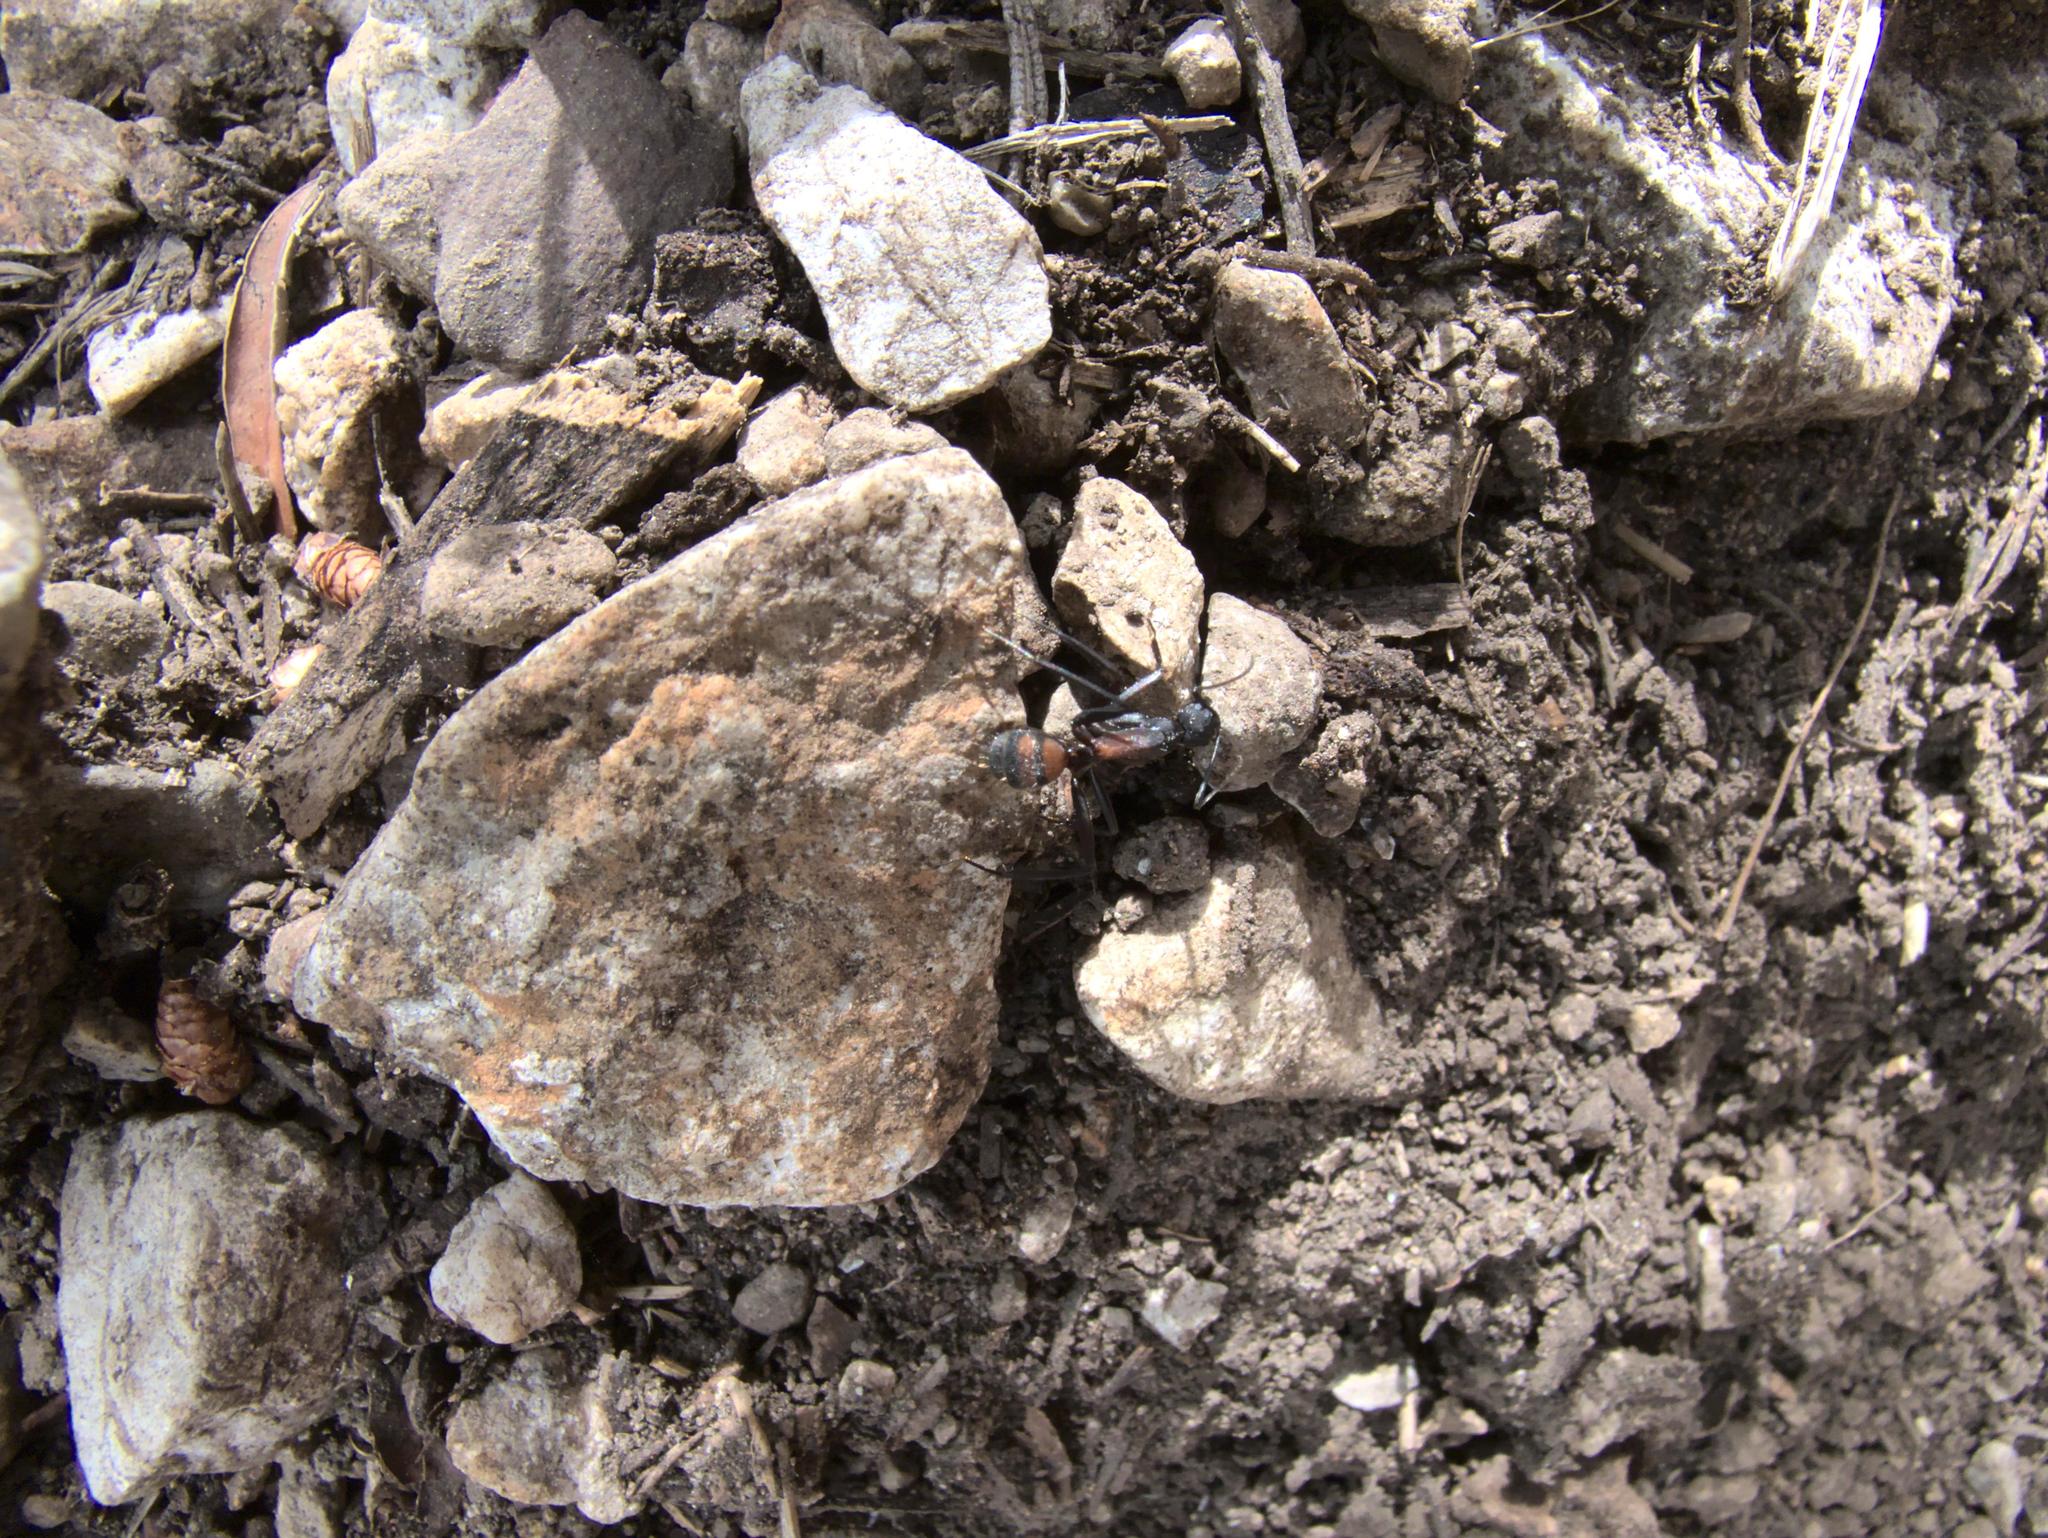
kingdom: Animalia
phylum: Arthropoda
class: Insecta
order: Hymenoptera
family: Formicidae
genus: Camponotus
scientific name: Camponotus cruentatus
